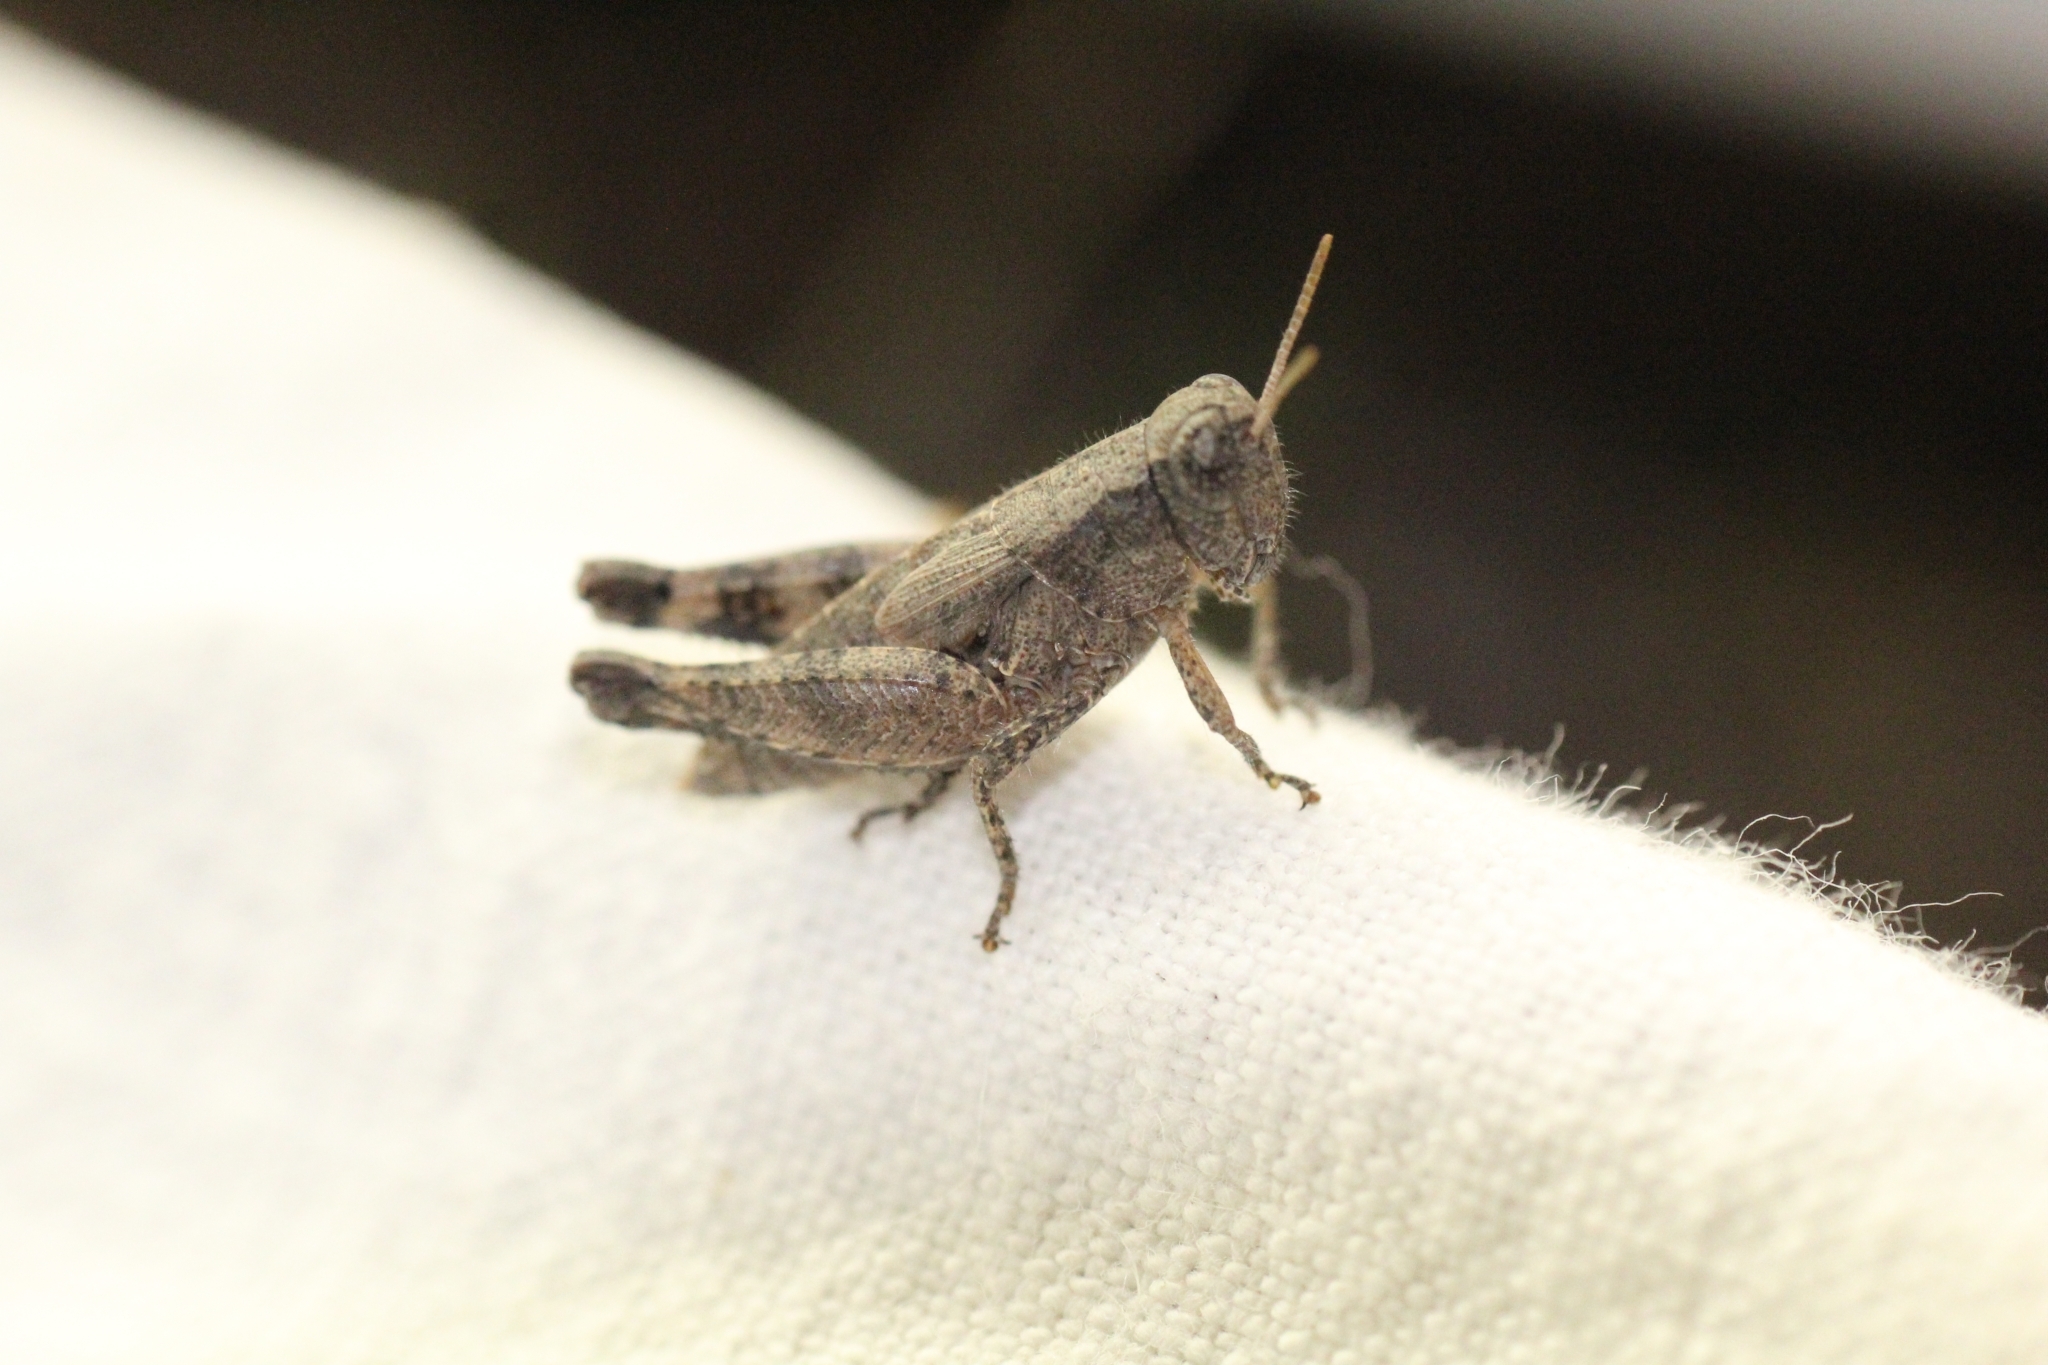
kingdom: Animalia
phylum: Arthropoda
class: Insecta
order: Orthoptera
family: Acrididae
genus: Pezotettix
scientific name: Pezotettix giornae
